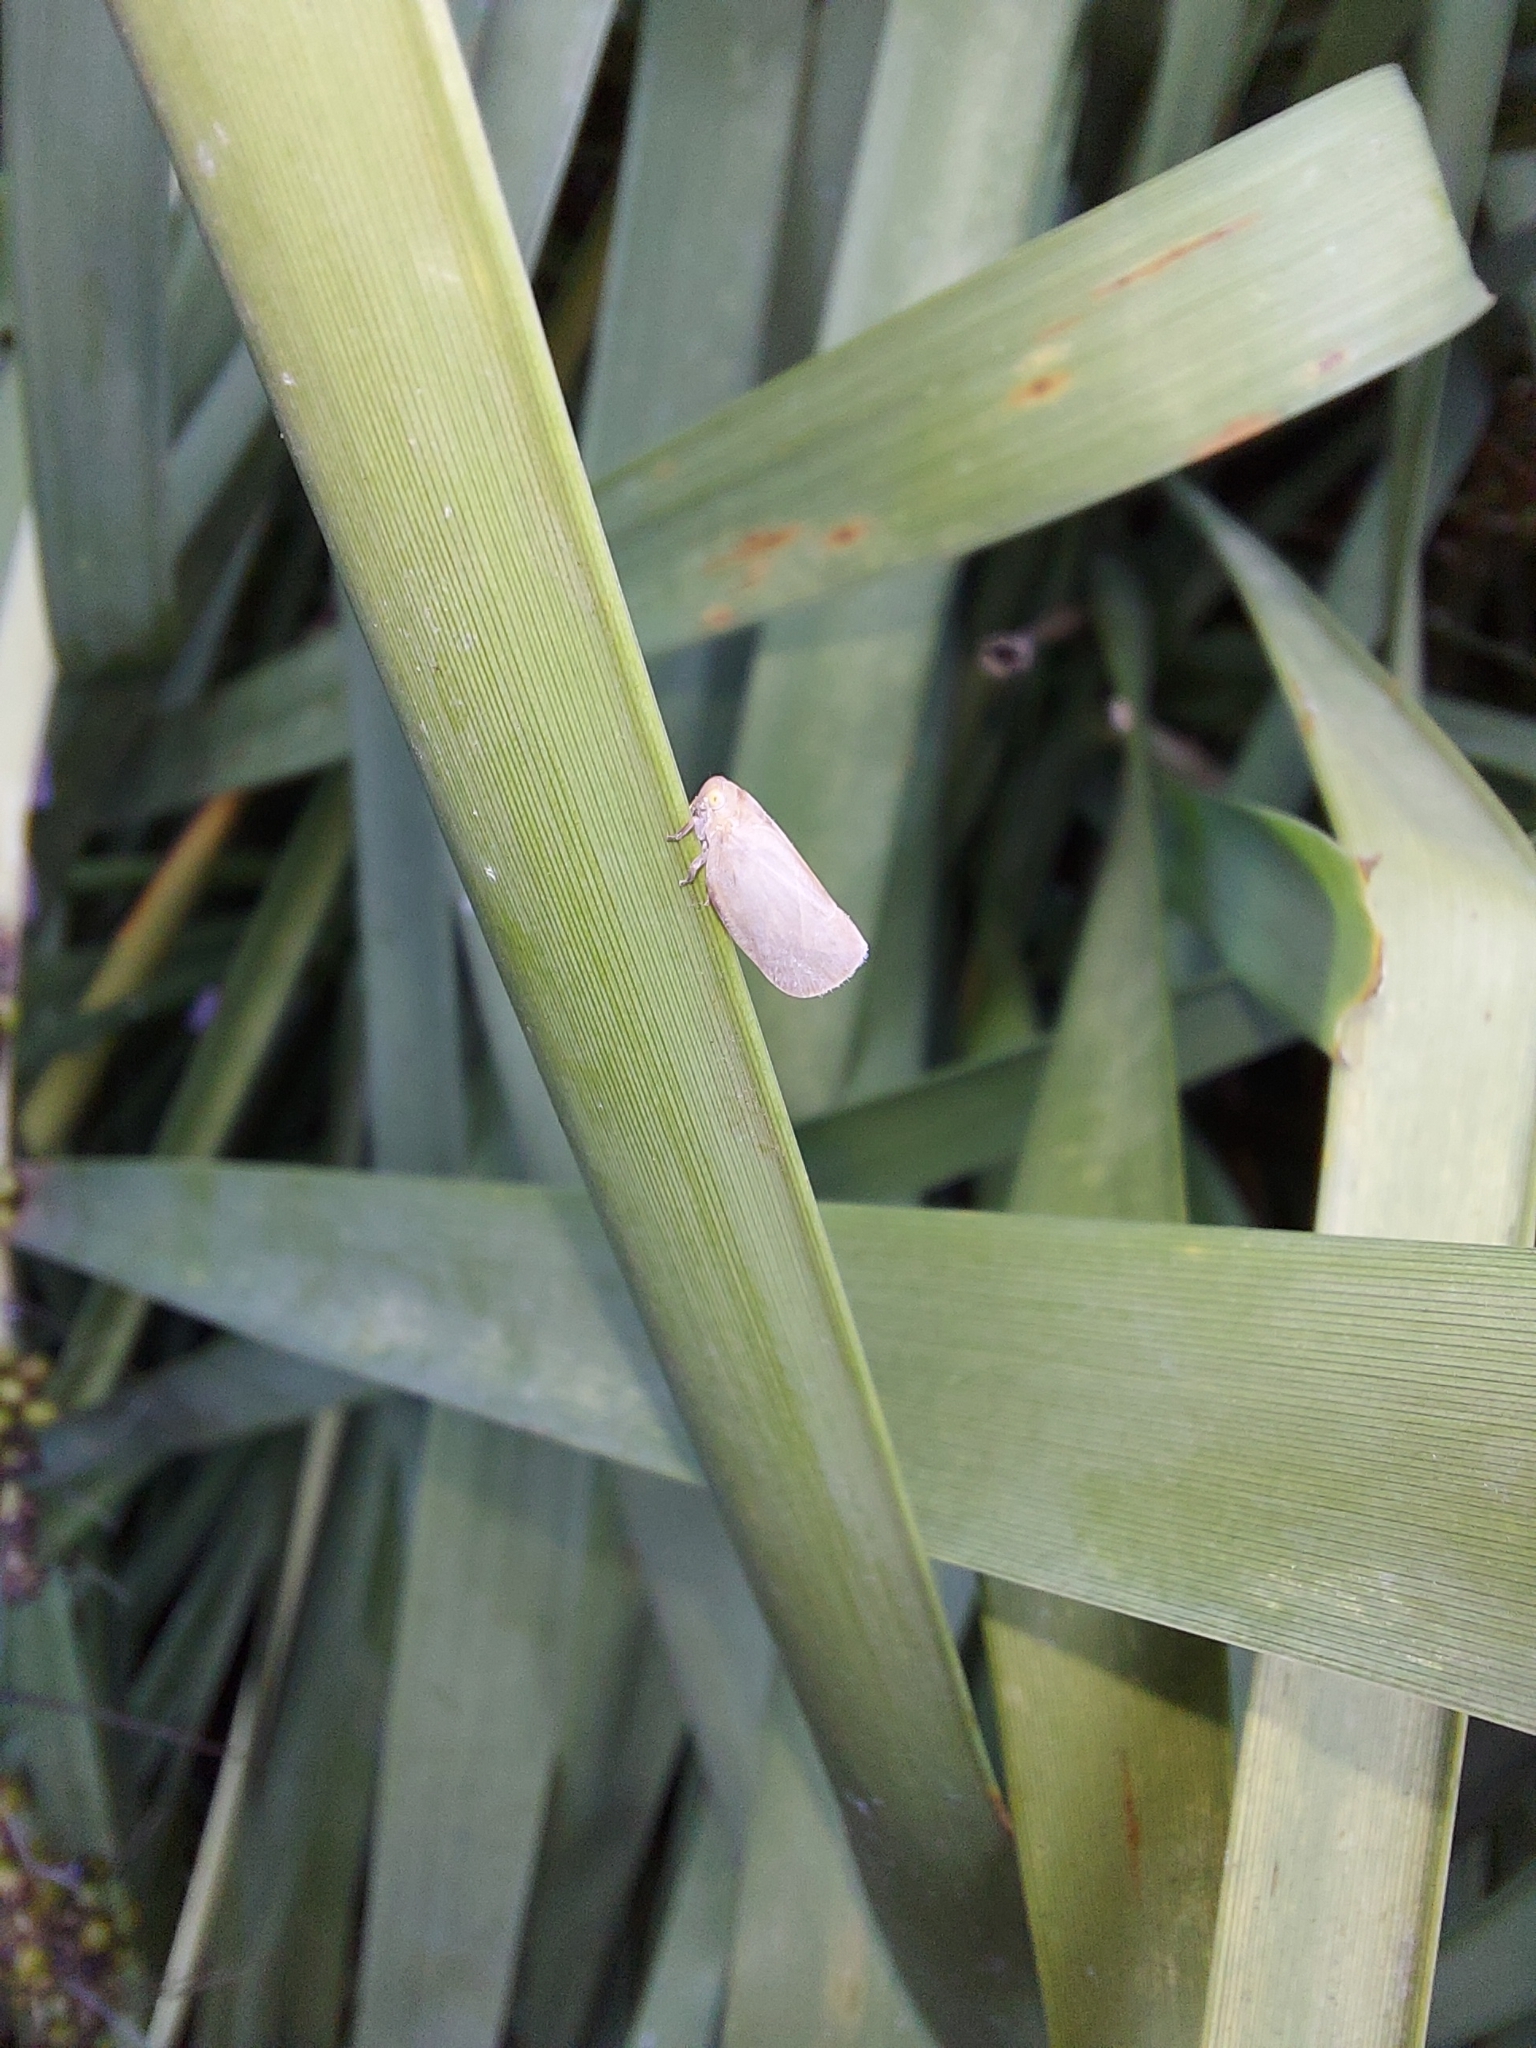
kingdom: Animalia
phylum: Arthropoda
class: Insecta
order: Hemiptera
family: Flatidae
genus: Anzora
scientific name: Anzora unicolor
